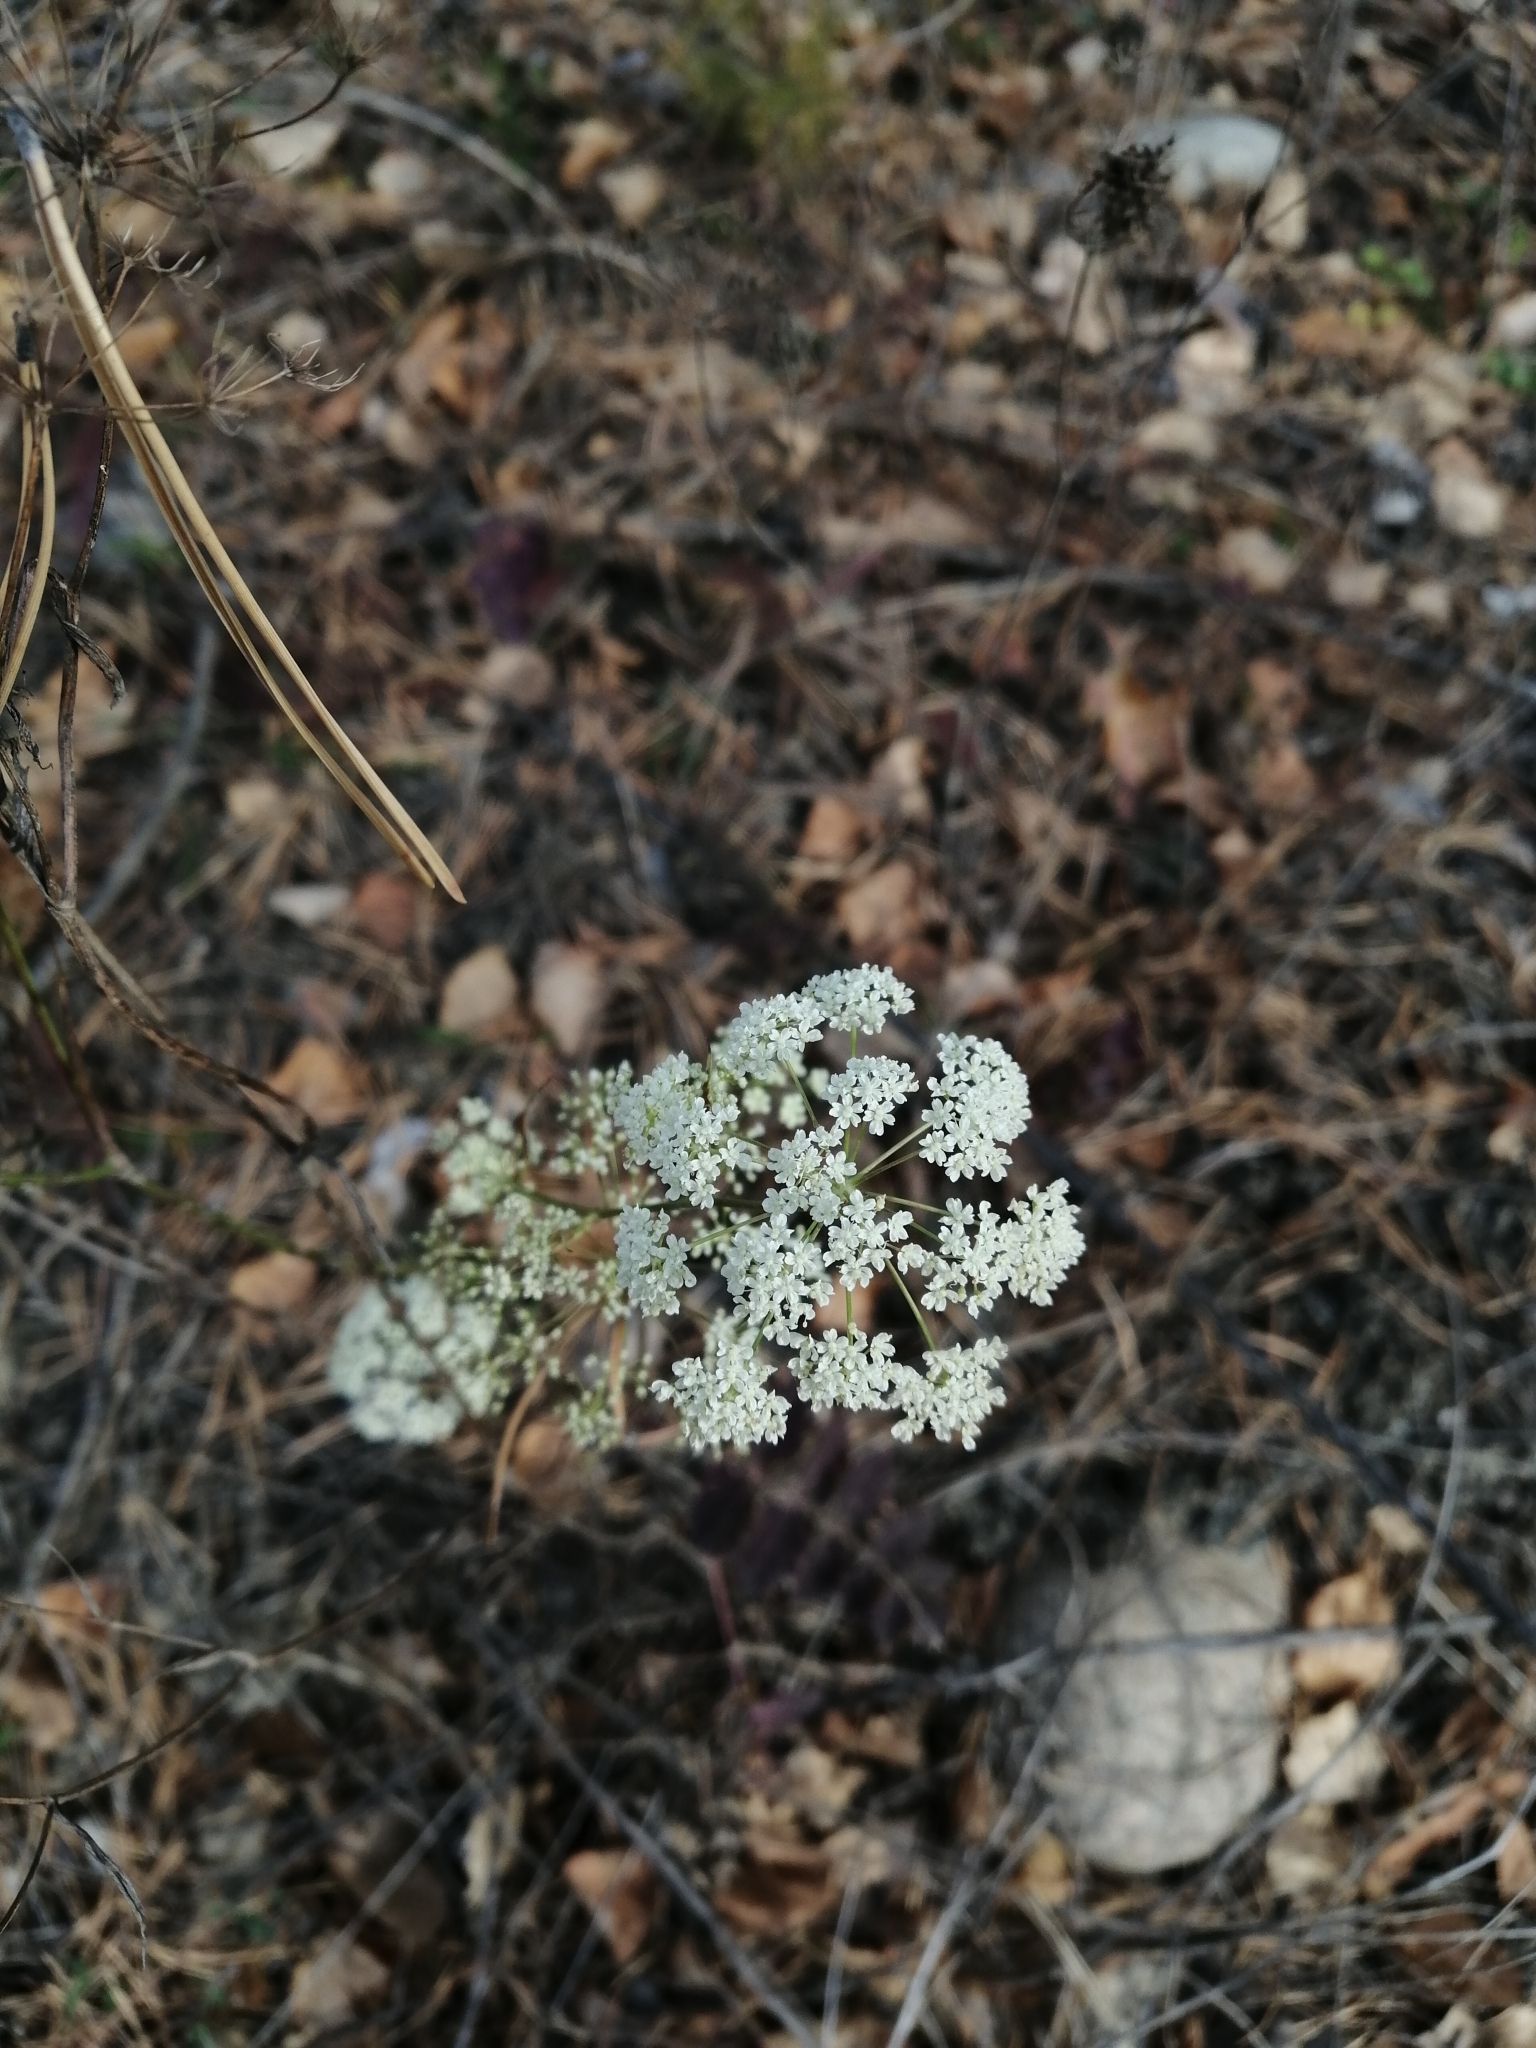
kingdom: Plantae
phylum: Tracheophyta
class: Magnoliopsida
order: Apiales
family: Apiaceae
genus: Pimpinella
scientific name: Pimpinella saxifraga
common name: Burnet-saxifrage
